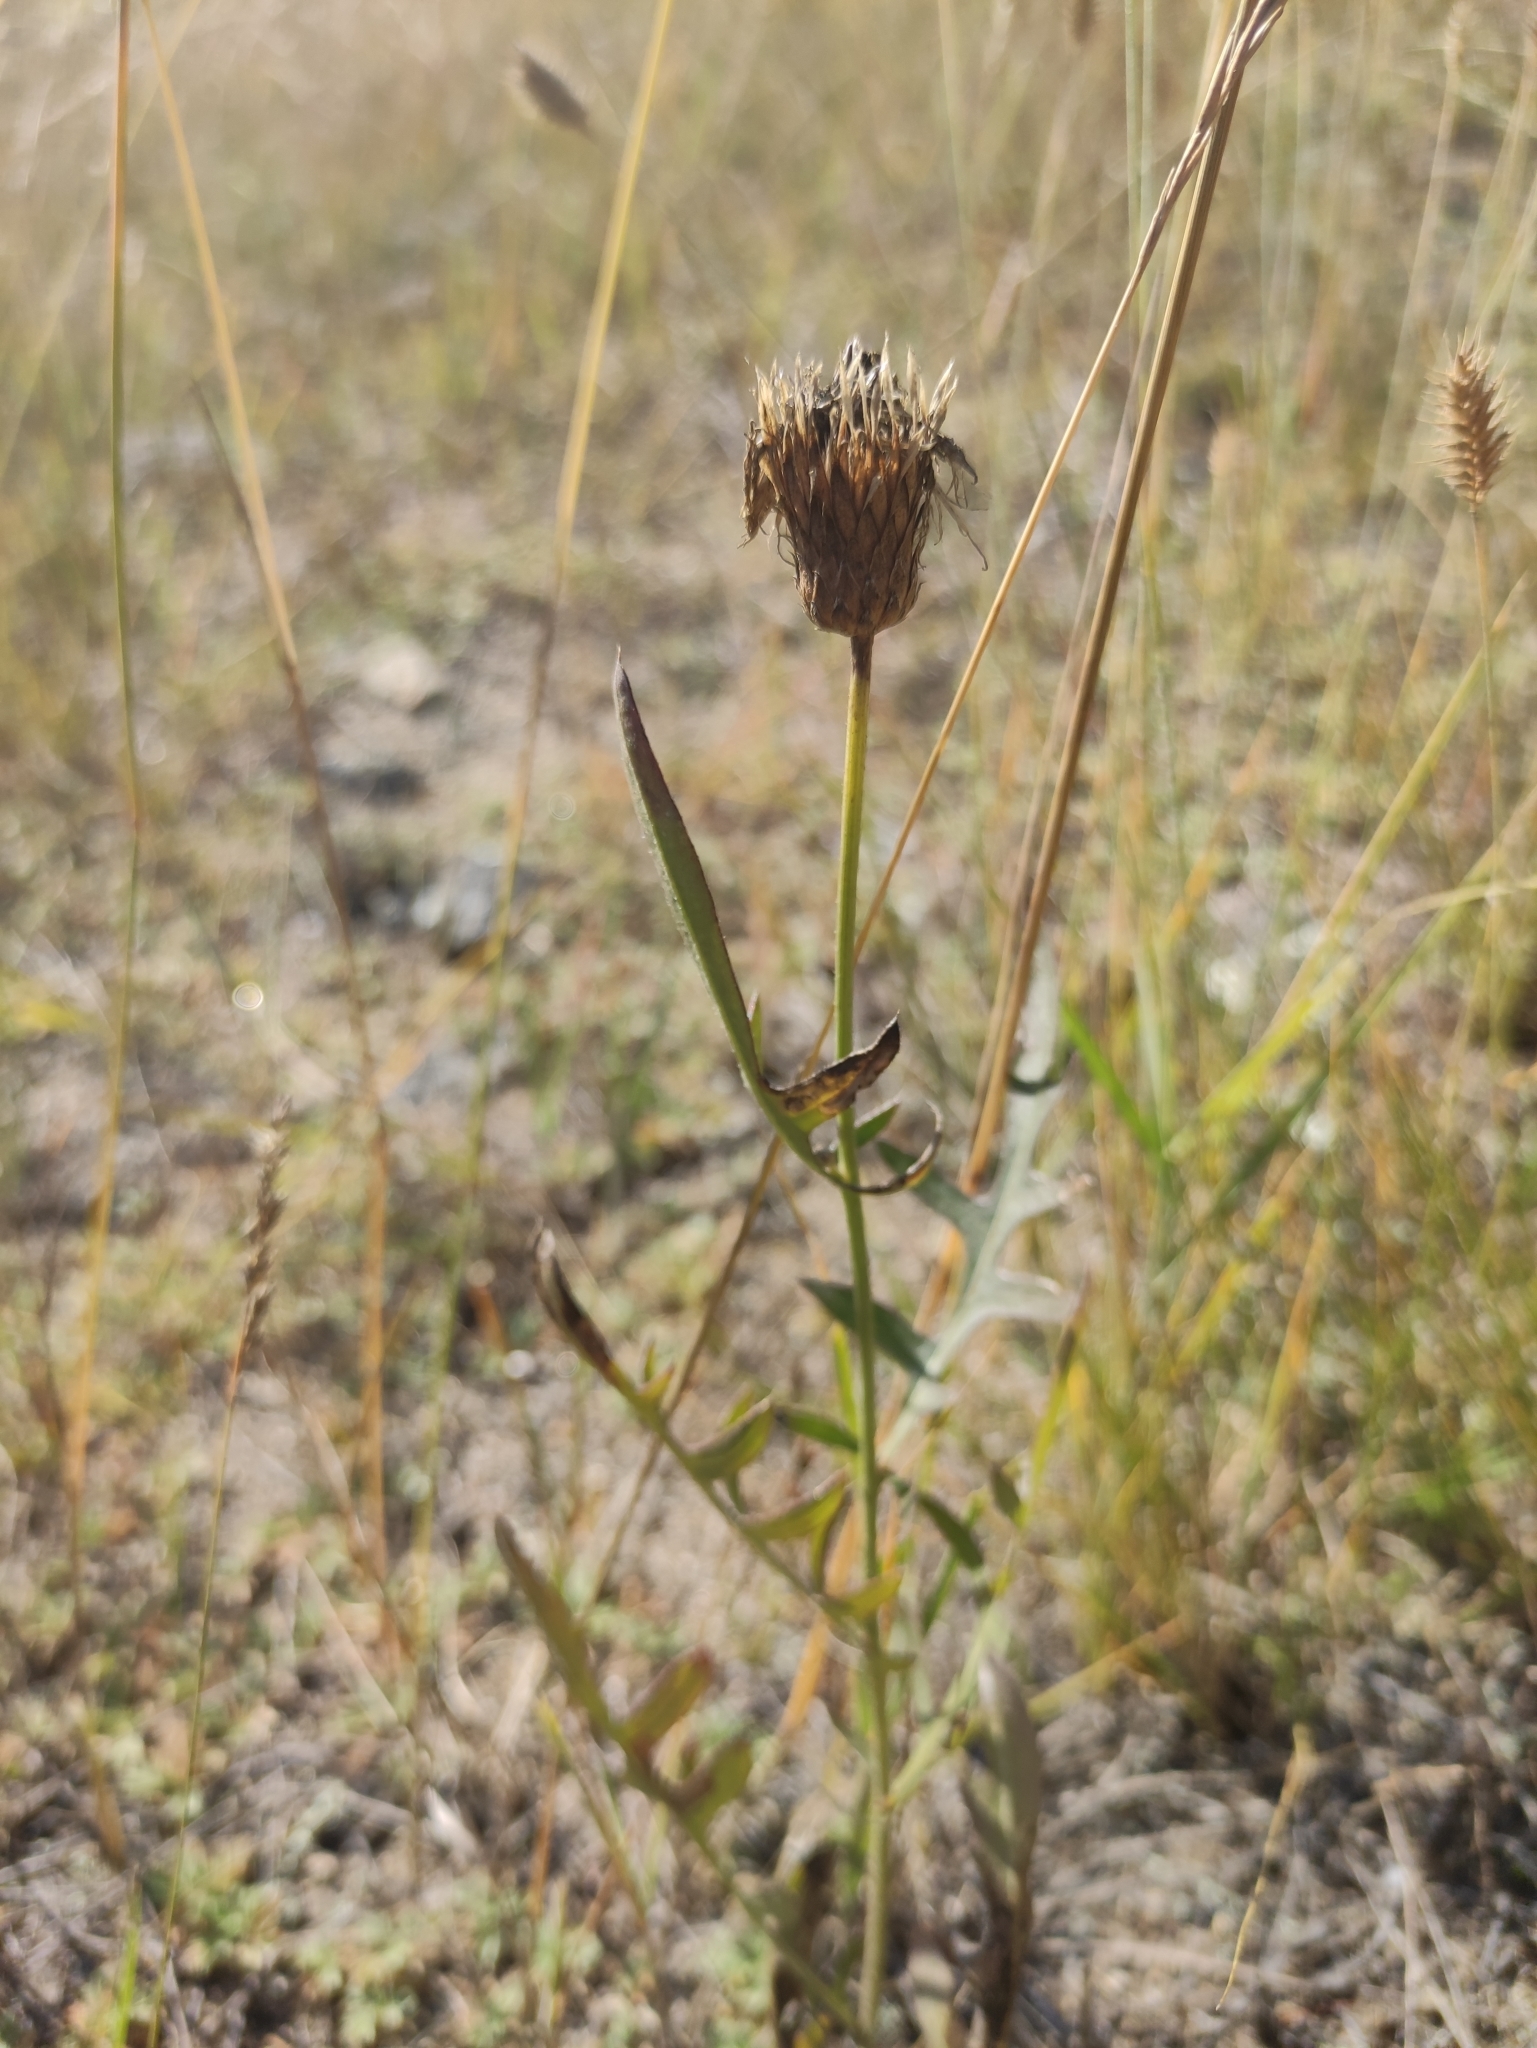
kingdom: Plantae
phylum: Tracheophyta
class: Magnoliopsida
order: Asterales
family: Asteraceae
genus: Klasea
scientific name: Klasea centauroides
